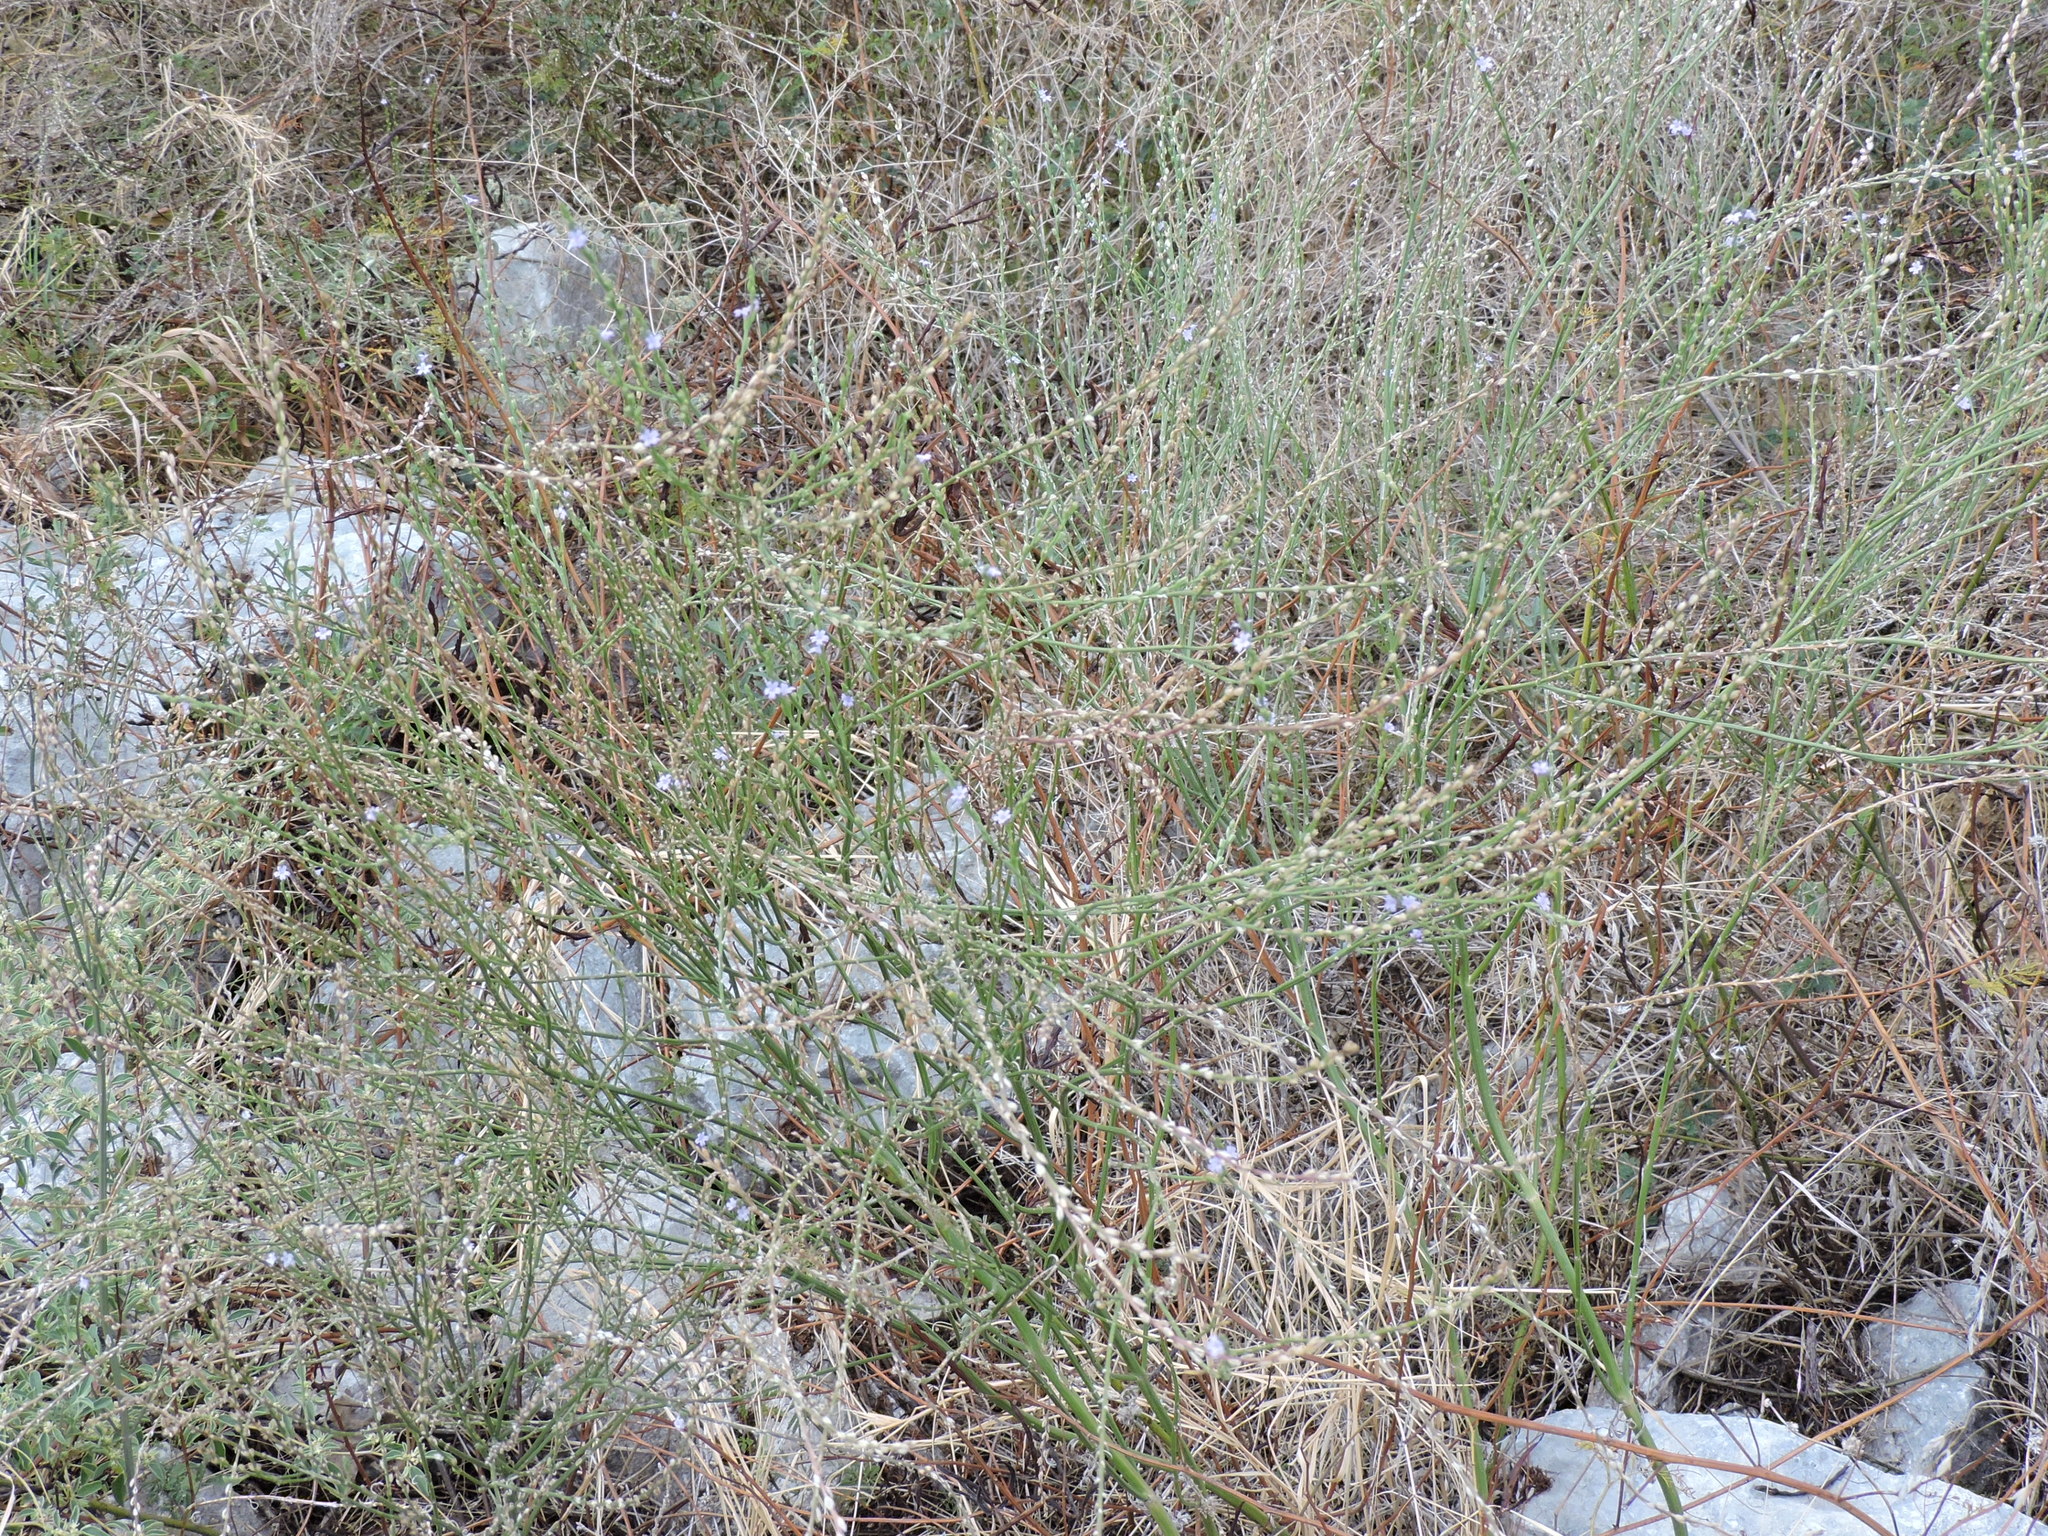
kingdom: Plantae
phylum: Tracheophyta
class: Magnoliopsida
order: Lamiales
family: Verbenaceae
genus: Verbena
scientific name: Verbena halei
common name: Texas vervain
